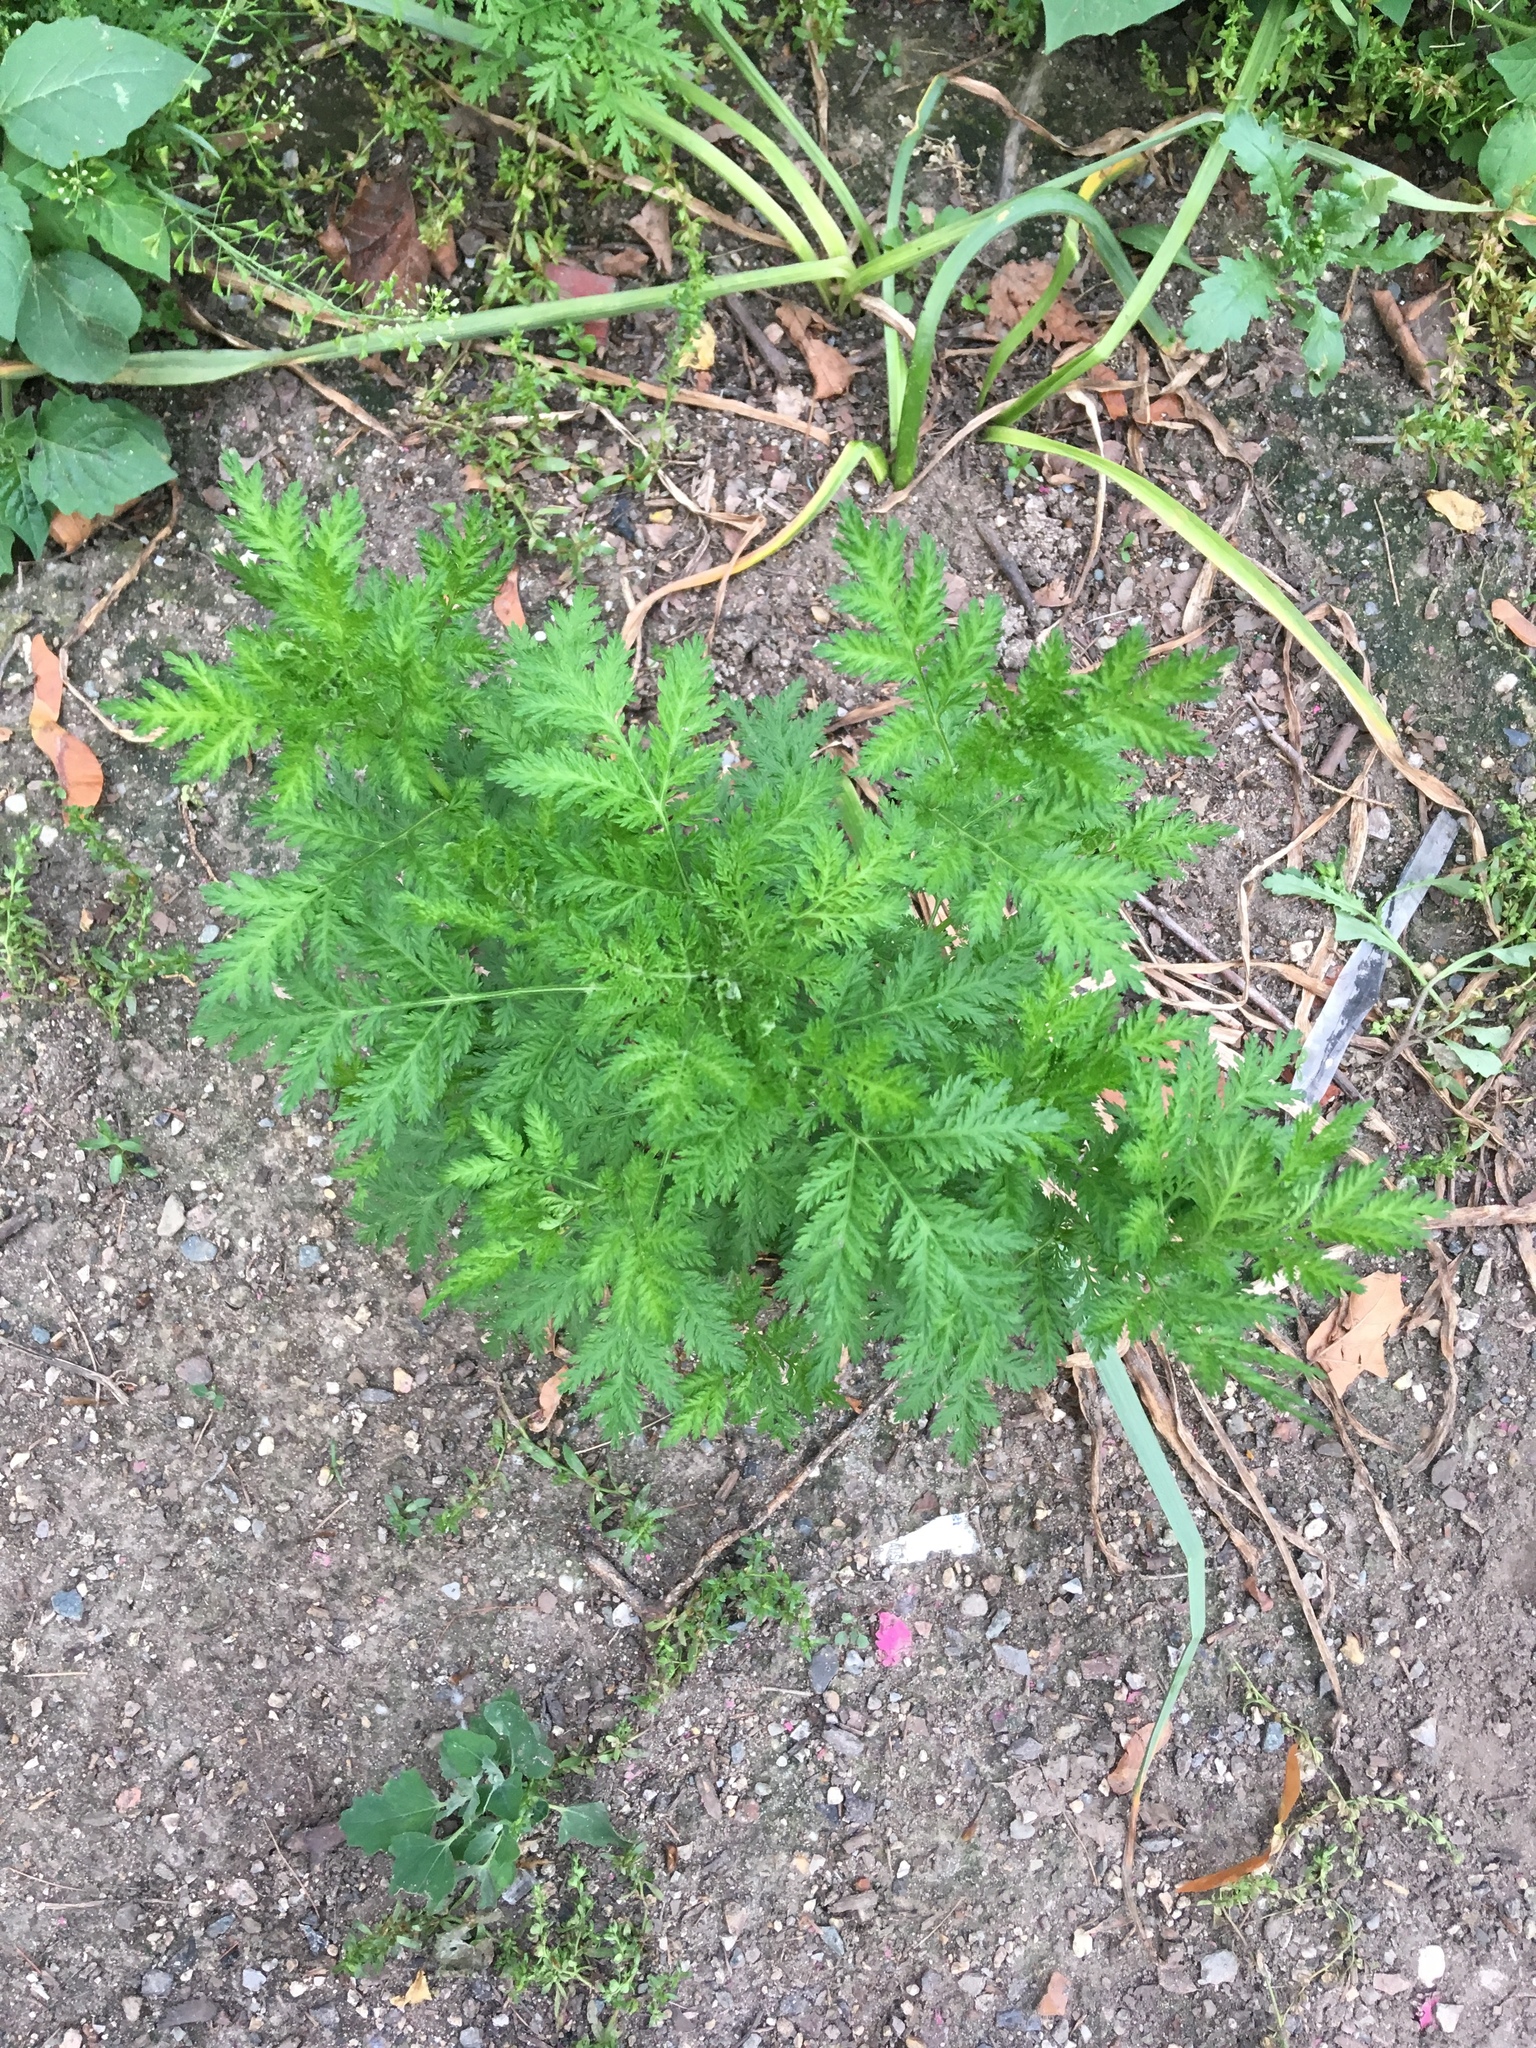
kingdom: Plantae
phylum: Tracheophyta
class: Magnoliopsida
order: Asterales
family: Asteraceae
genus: Artemisia
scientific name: Artemisia annua
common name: Sweet sagewort
